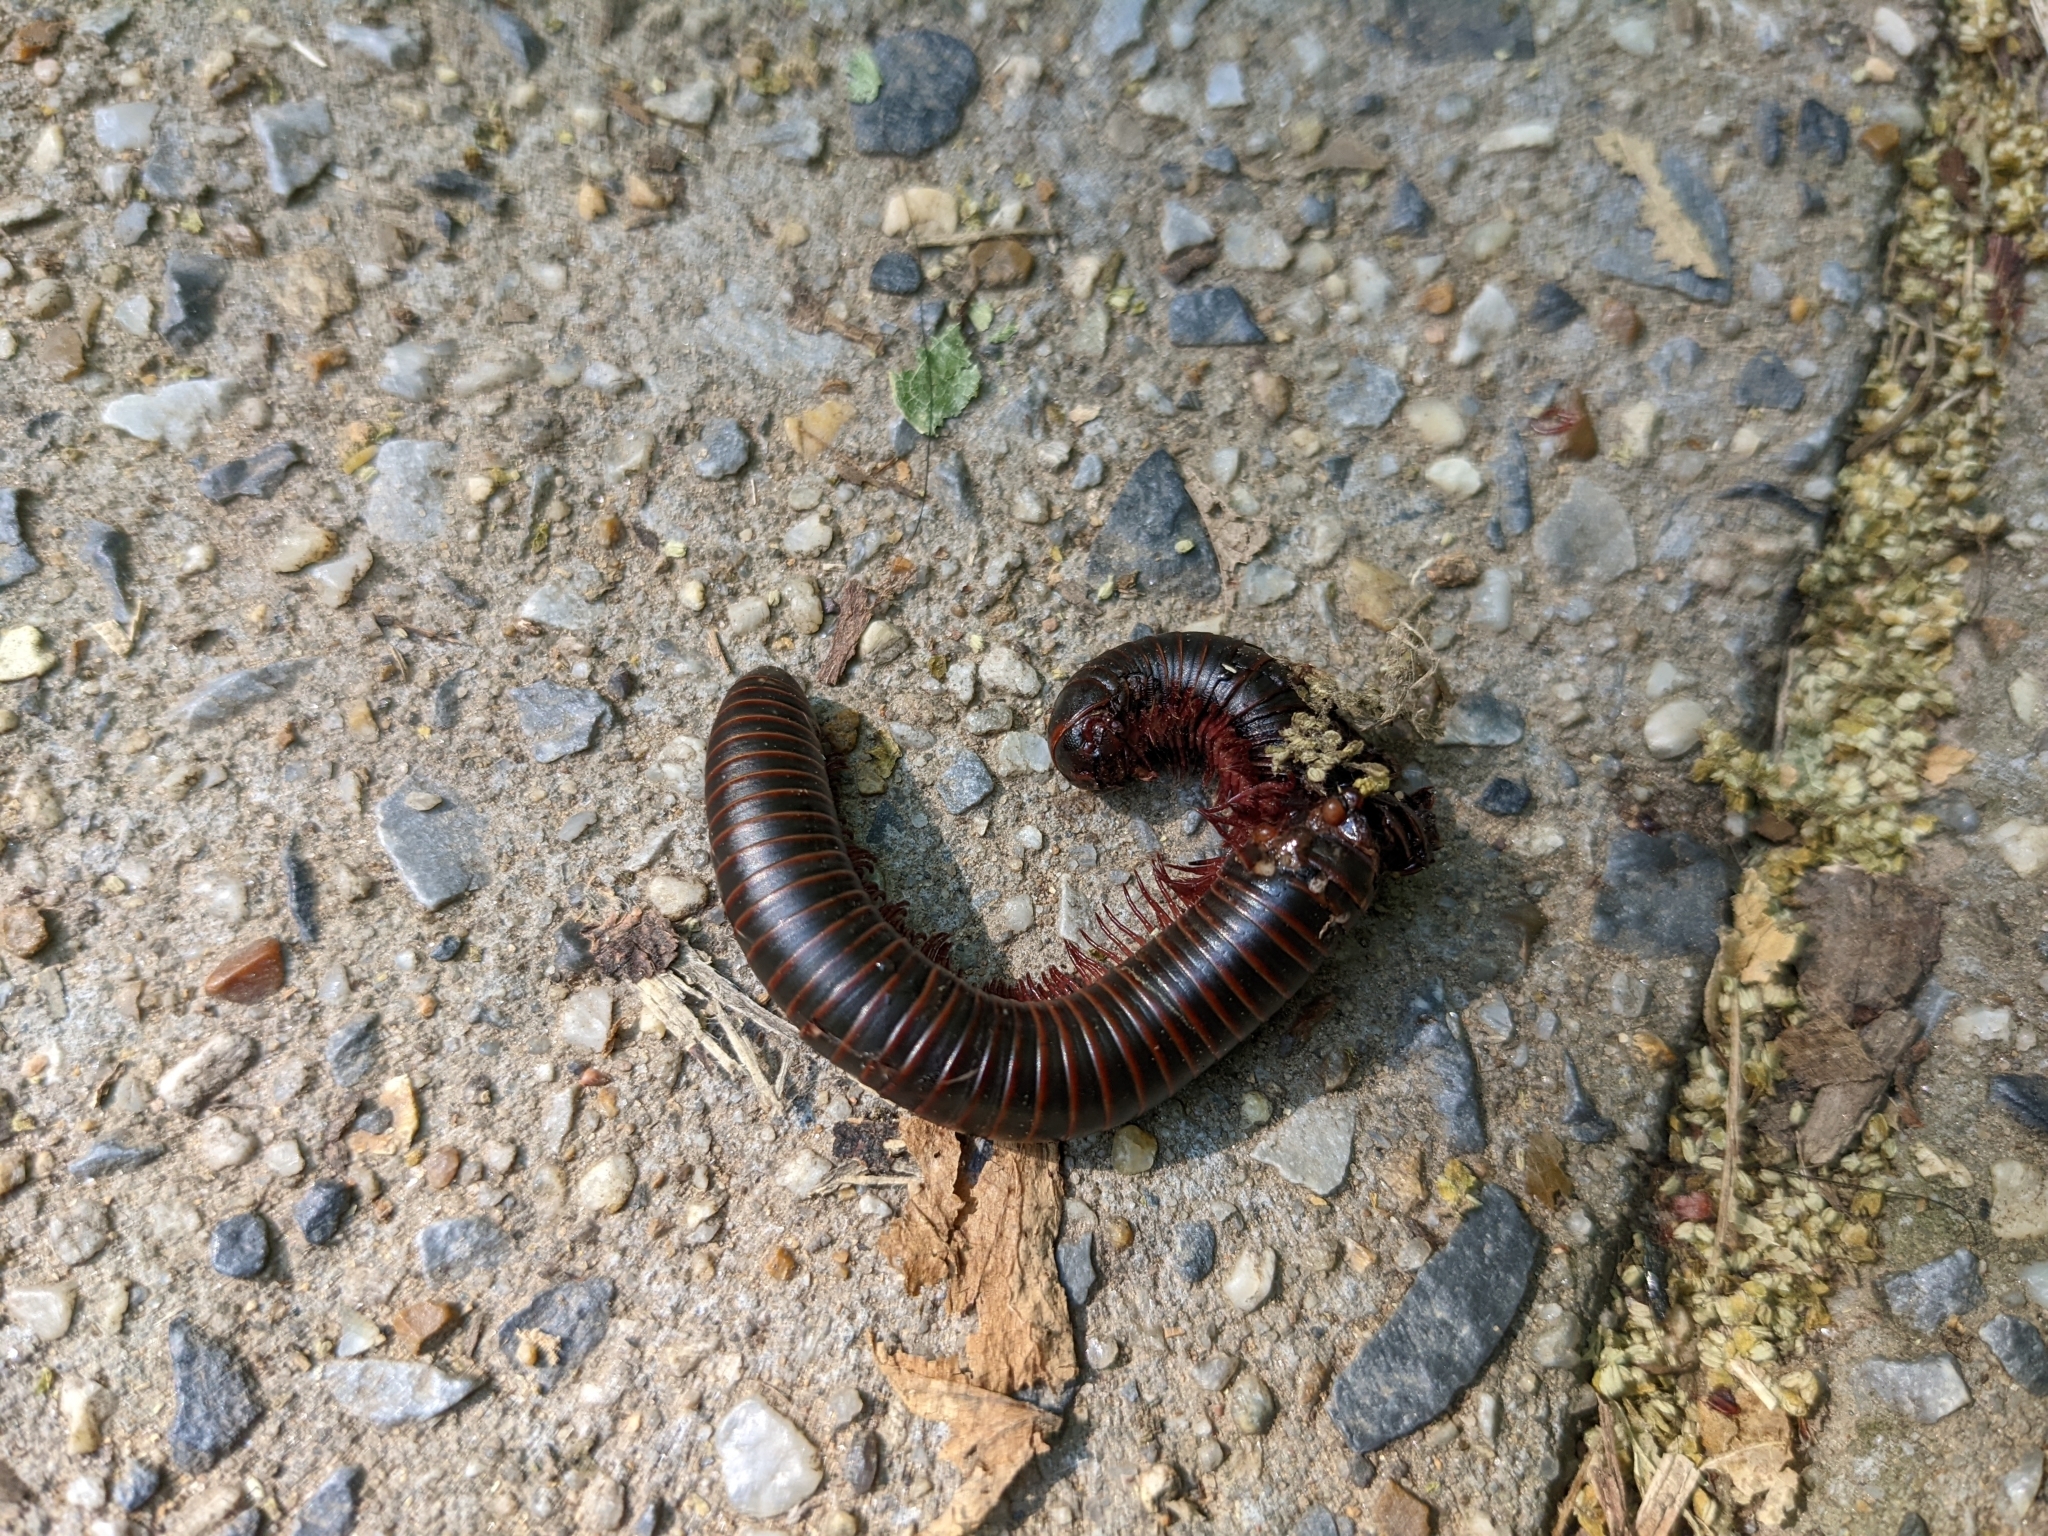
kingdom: Animalia
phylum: Arthropoda
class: Diplopoda
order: Spirobolida
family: Spirobolidae
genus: Narceus
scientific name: Narceus
